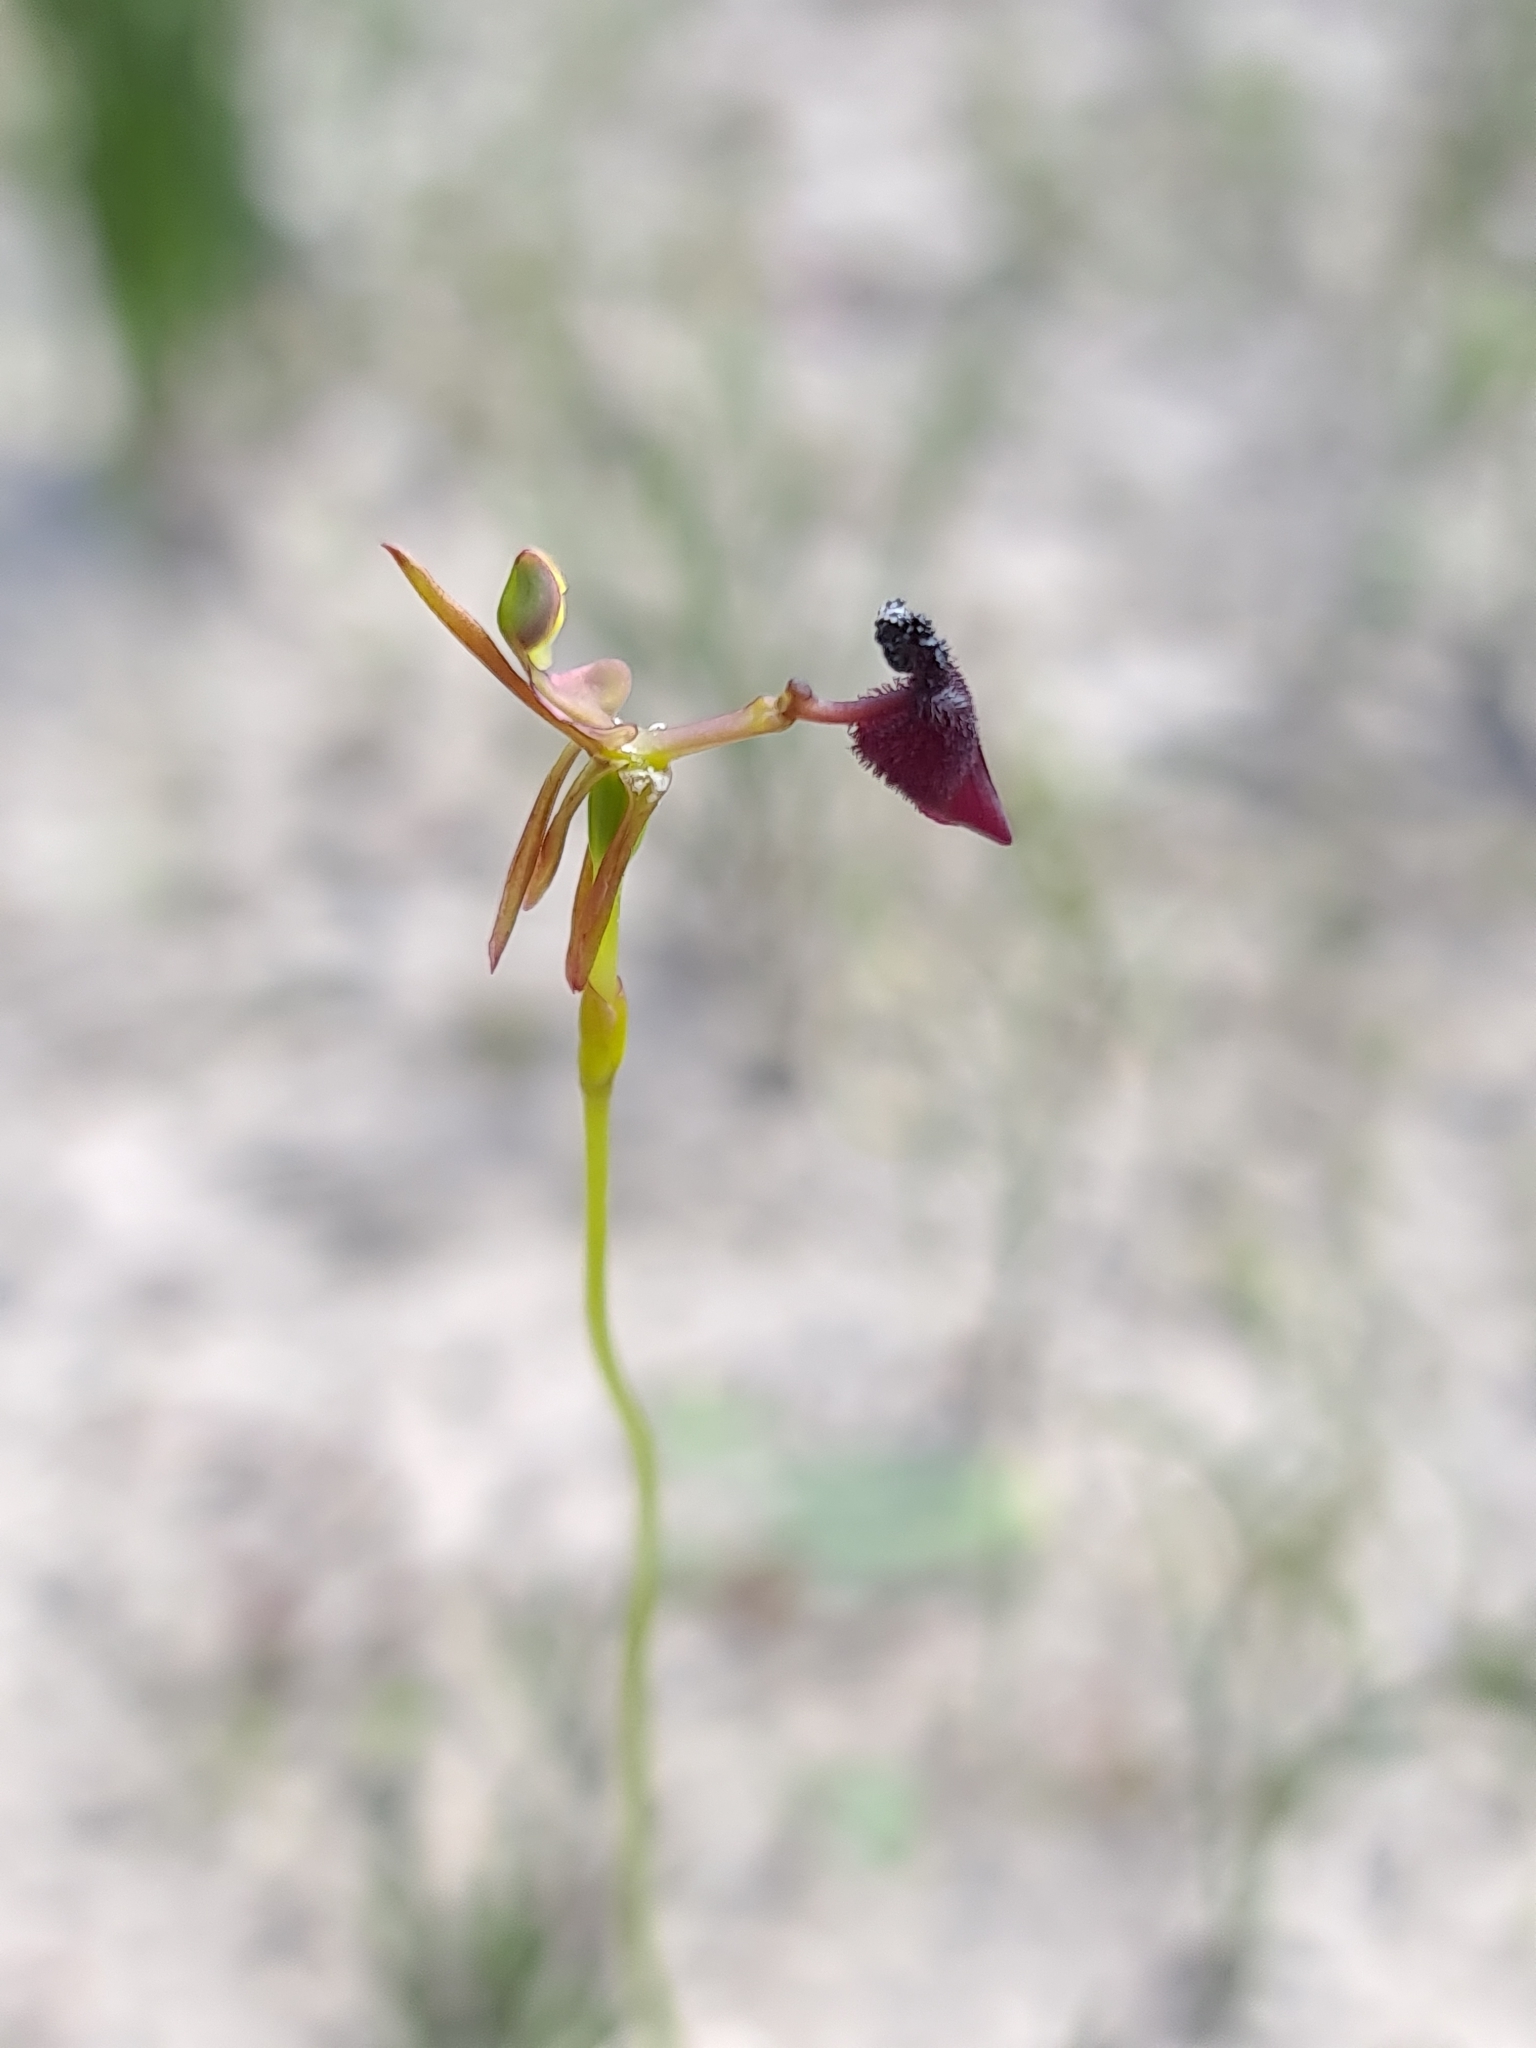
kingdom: Plantae
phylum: Tracheophyta
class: Liliopsida
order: Asparagales
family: Orchidaceae
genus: Drakaea
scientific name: Drakaea glyptodon
